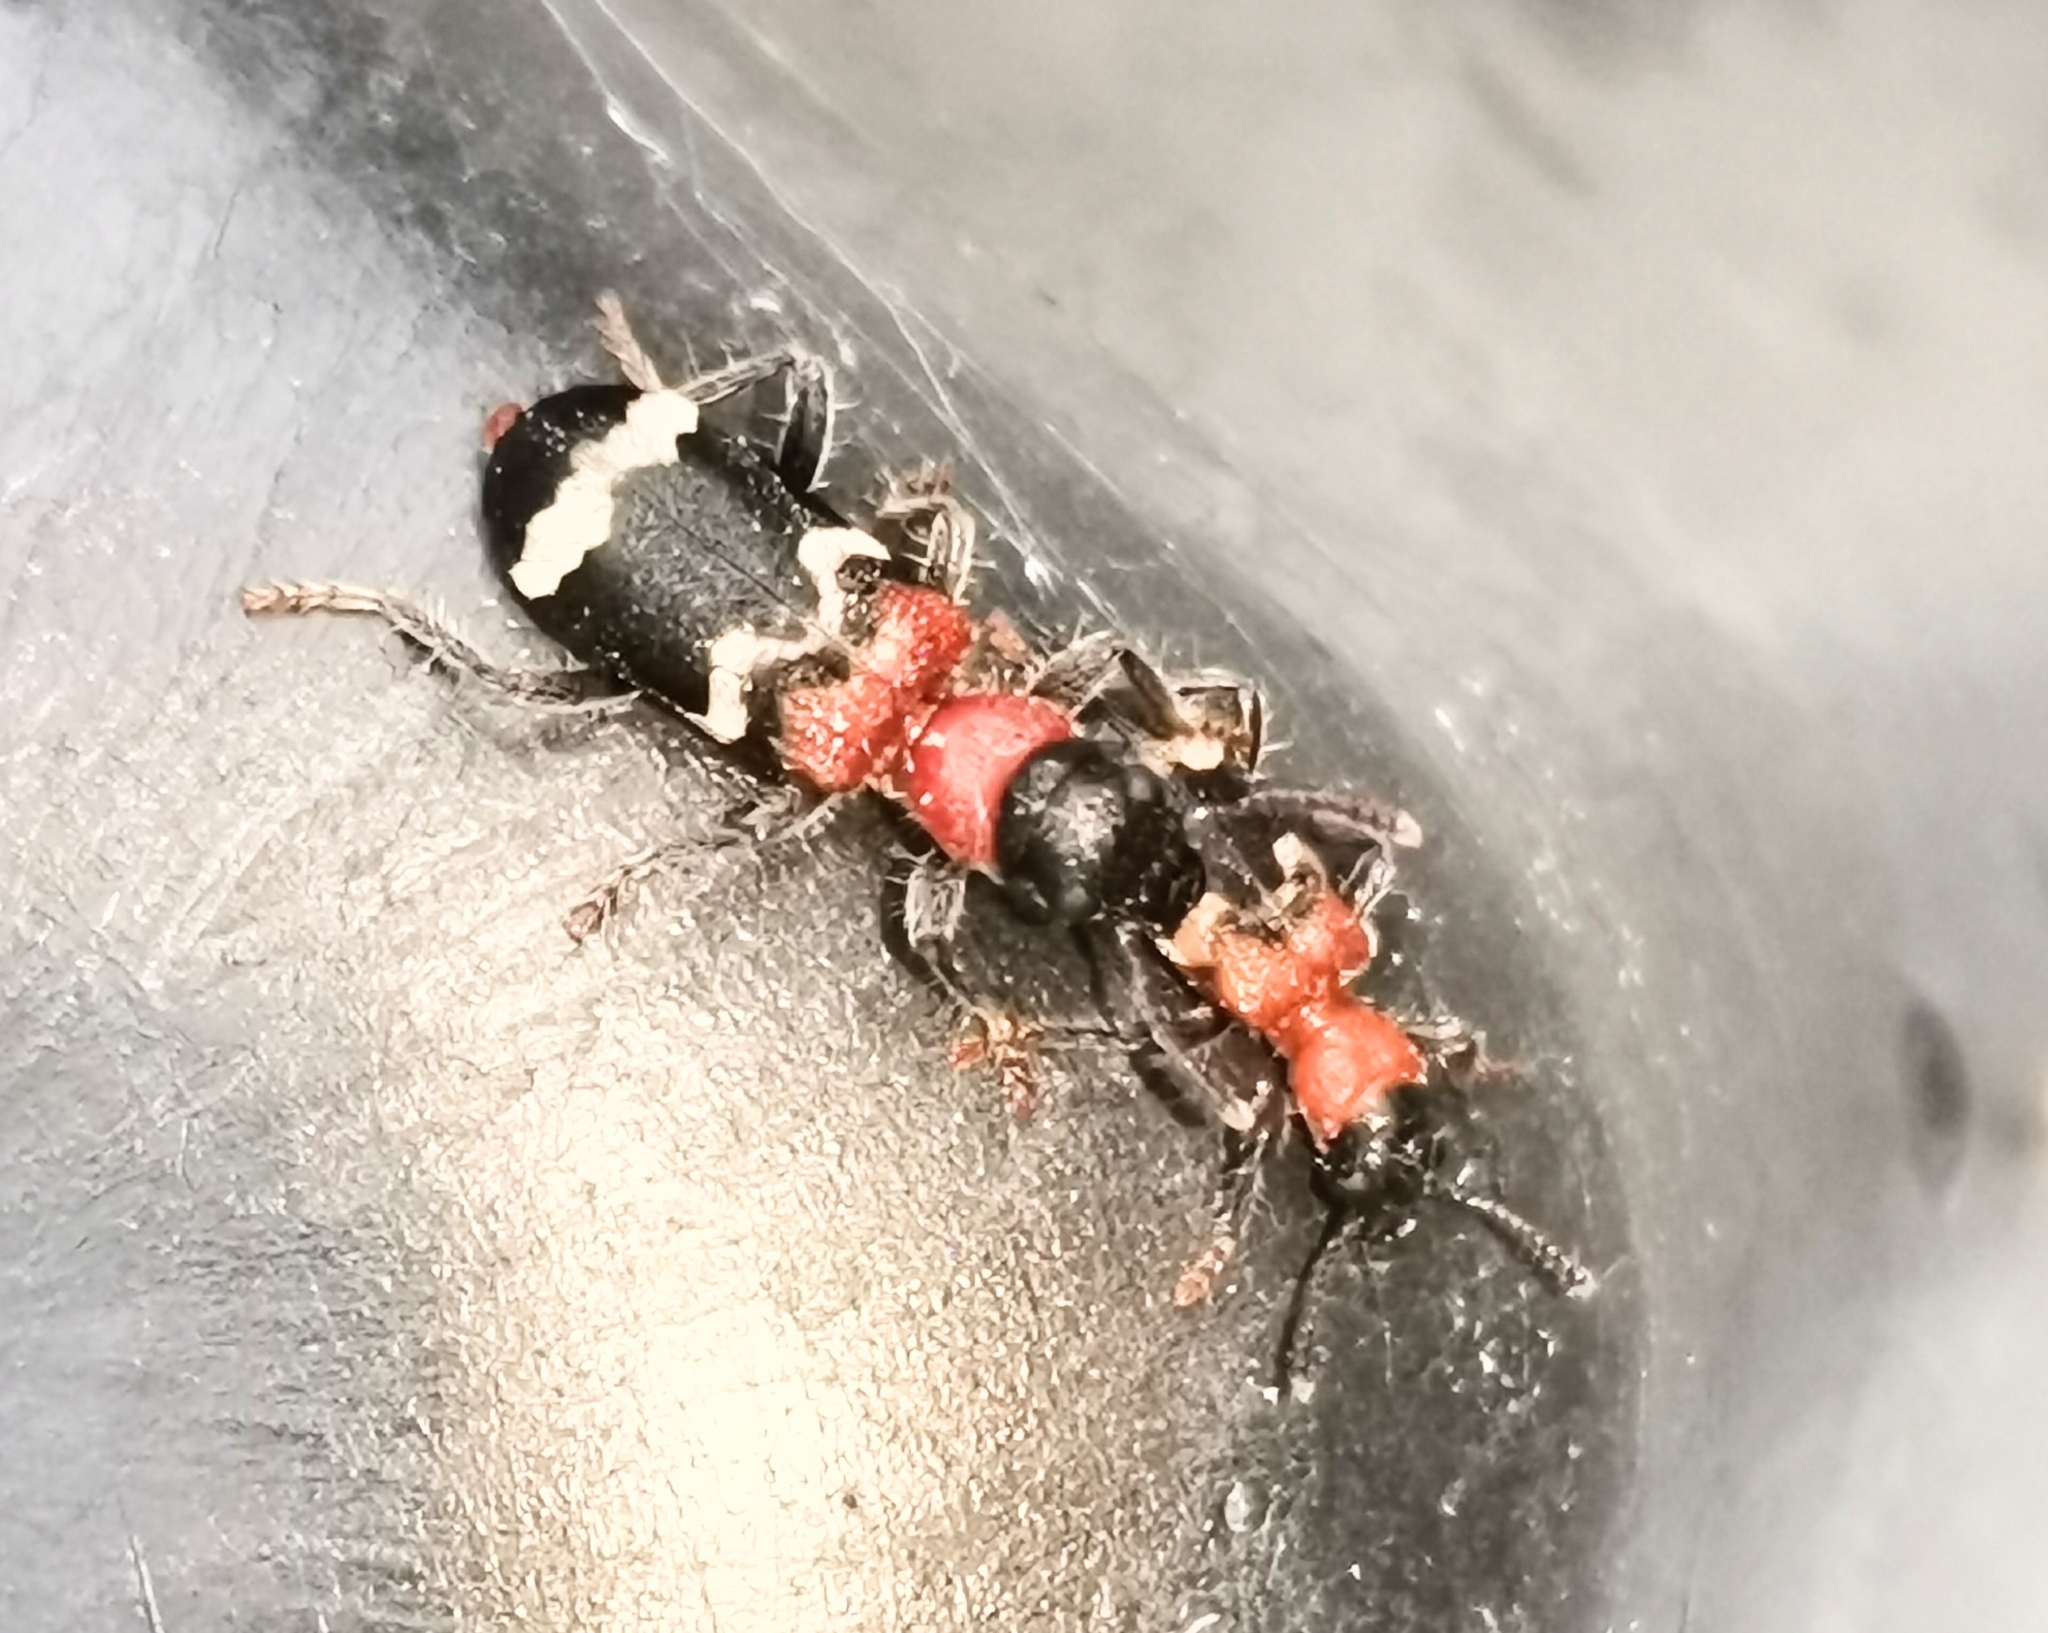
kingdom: Animalia
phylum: Arthropoda
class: Insecta
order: Coleoptera
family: Cleridae
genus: Thanasimus
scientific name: Thanasimus formicarius
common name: Ant beetle
